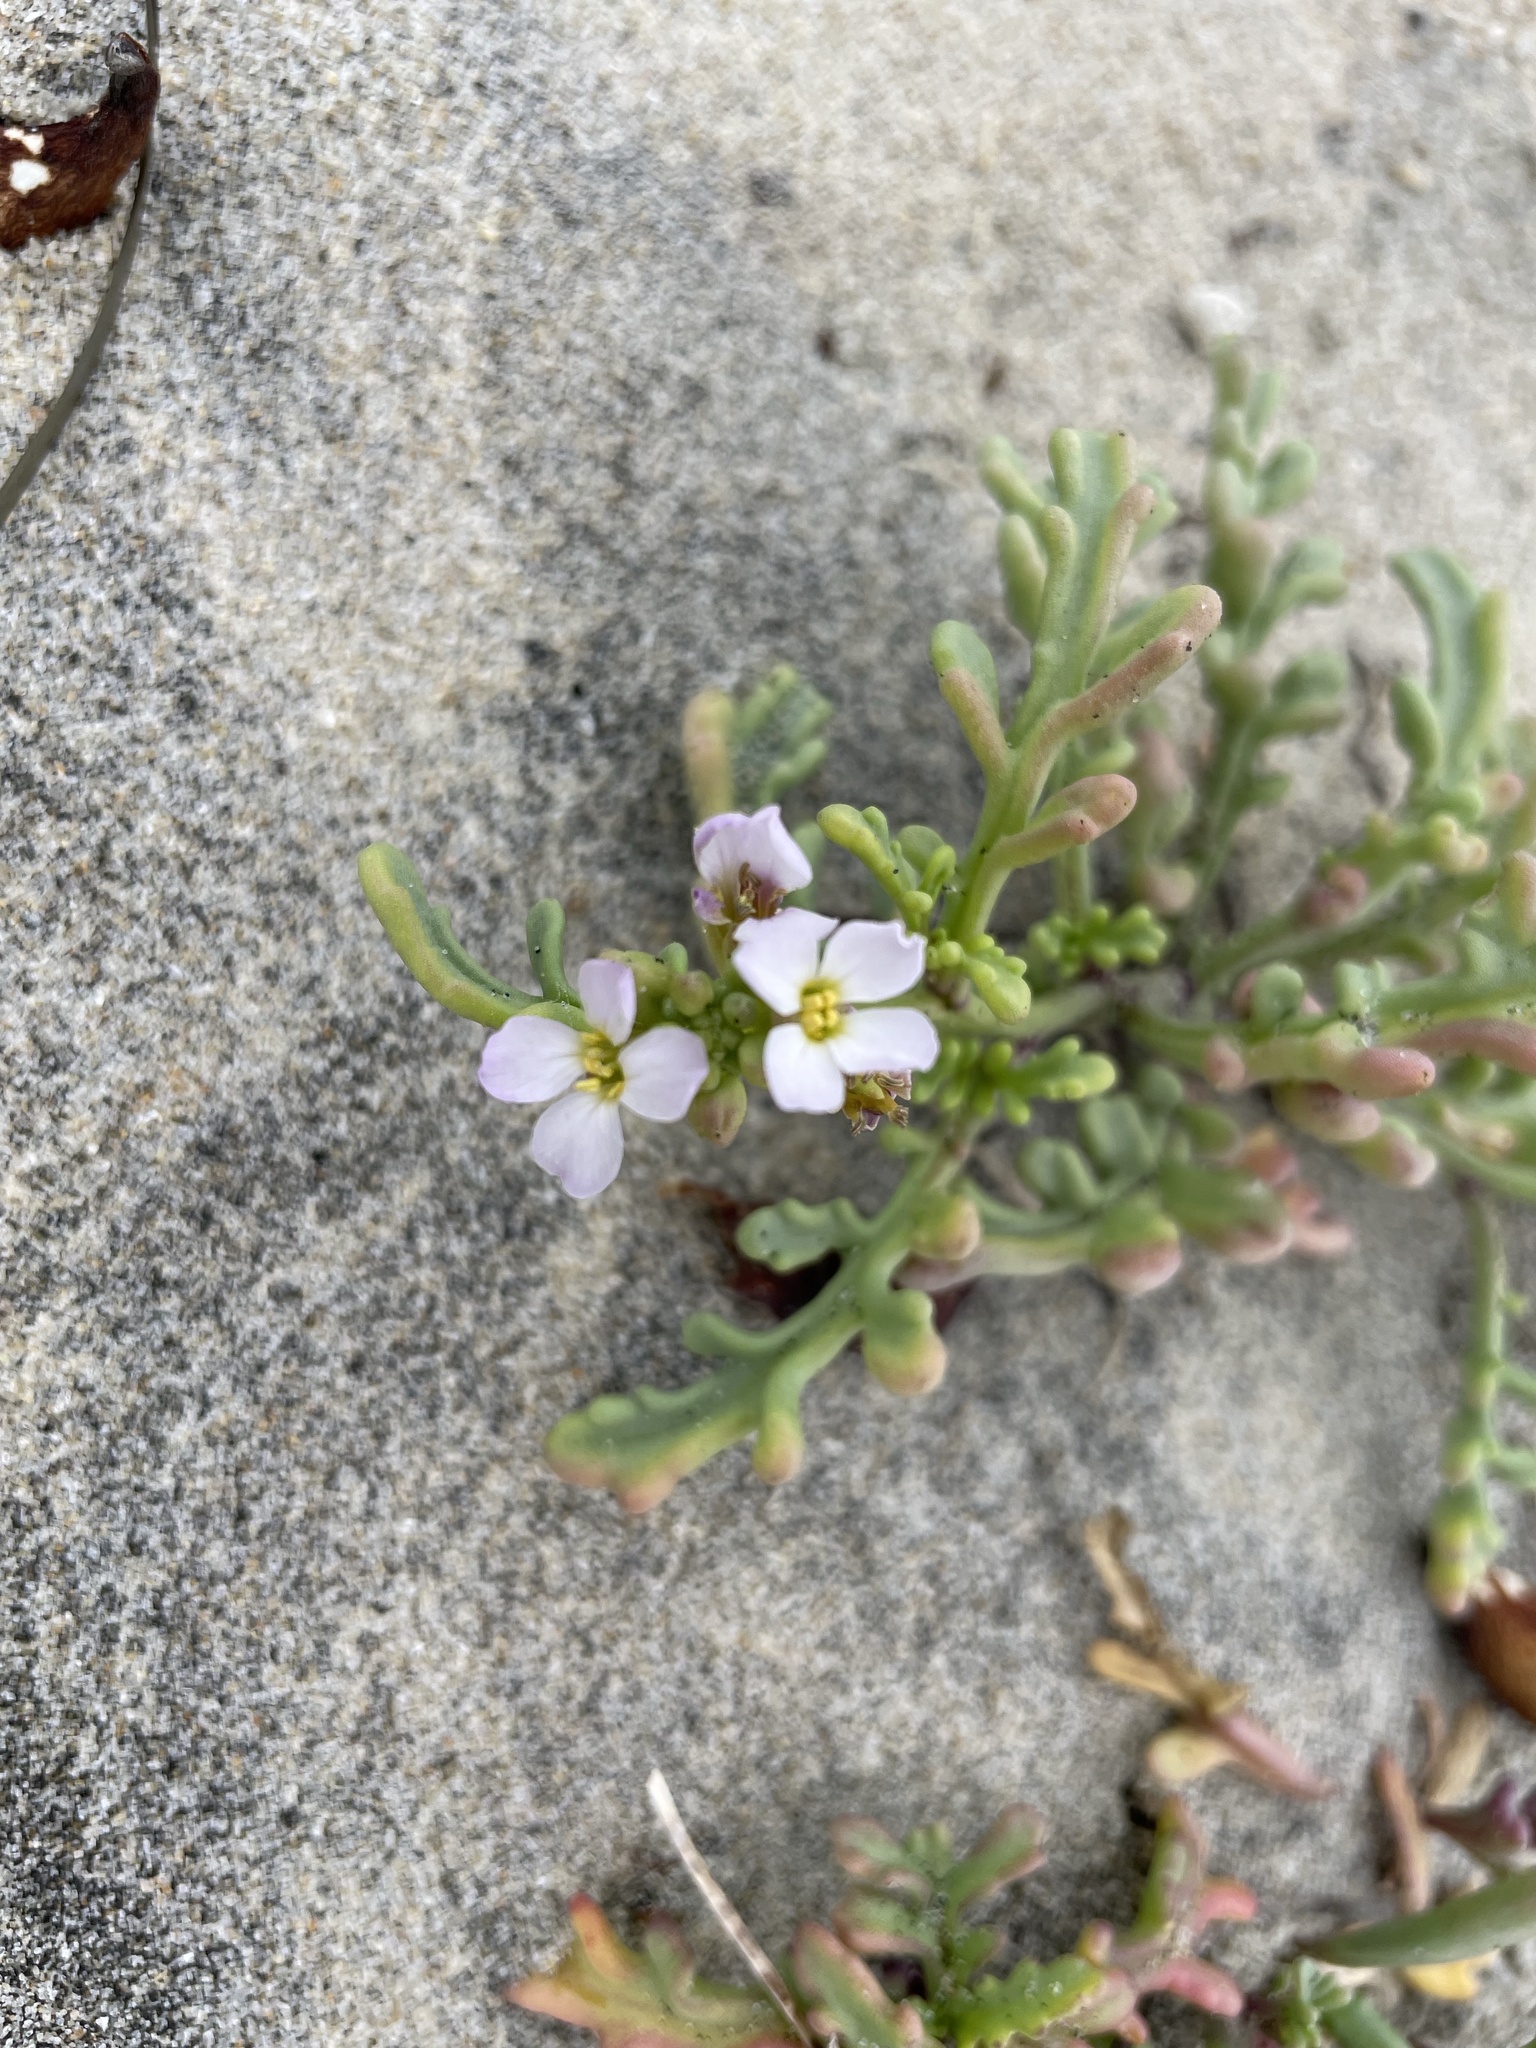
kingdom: Plantae
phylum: Tracheophyta
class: Magnoliopsida
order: Brassicales
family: Brassicaceae
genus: Cakile
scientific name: Cakile maritima
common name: Sea rocket
